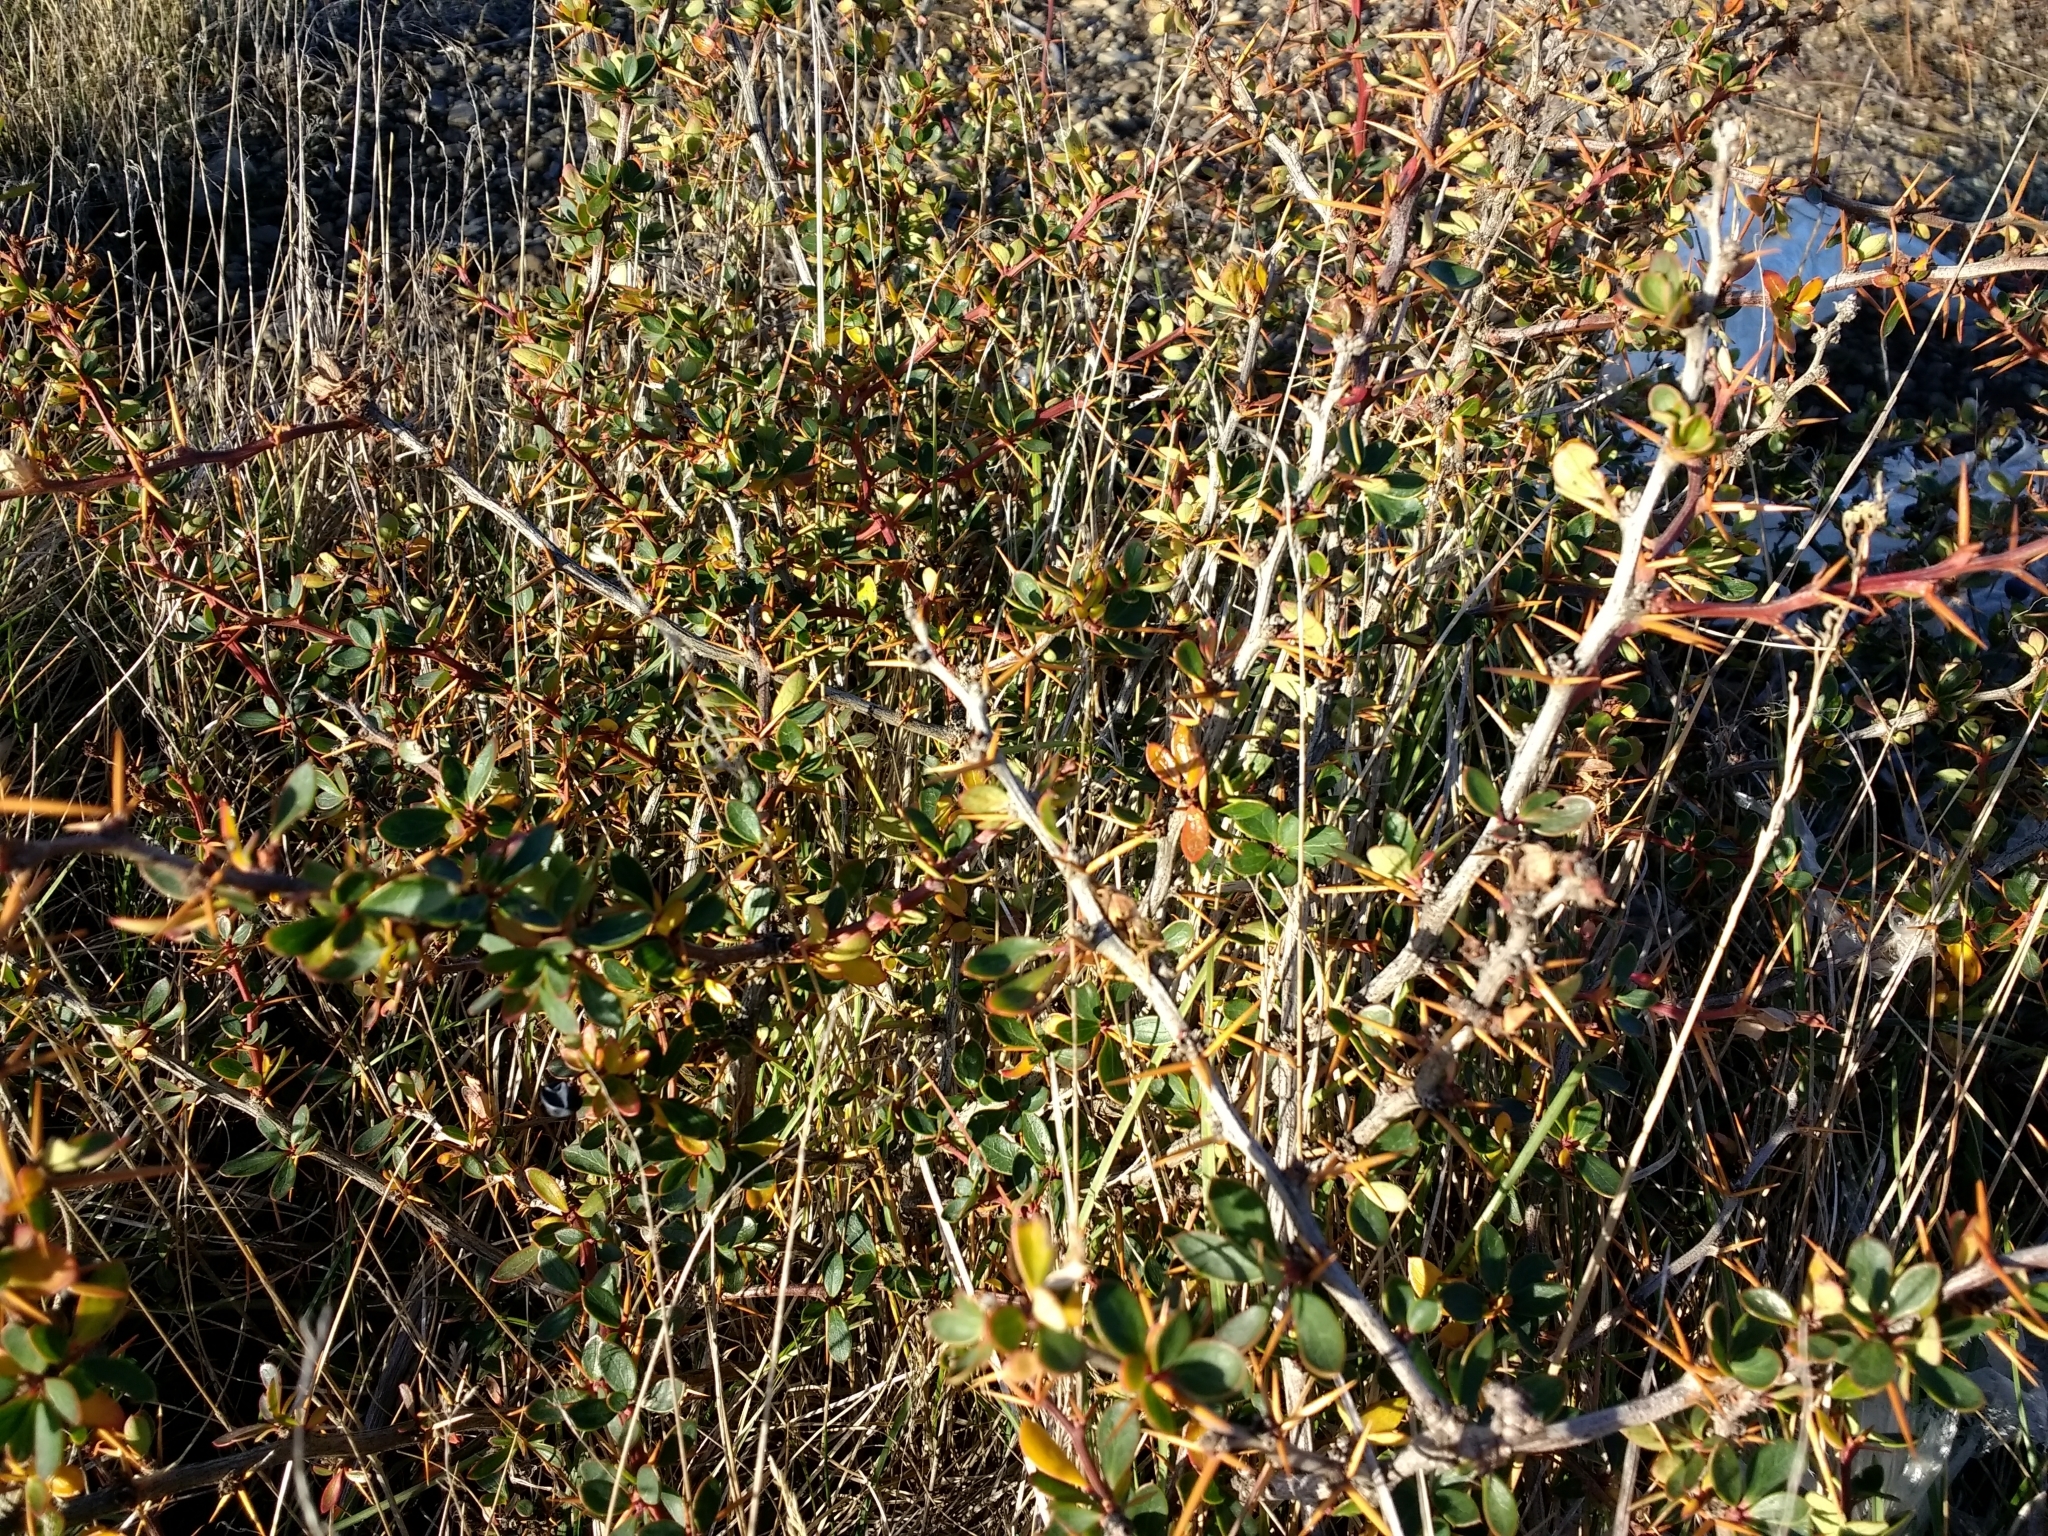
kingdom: Plantae
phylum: Tracheophyta
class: Magnoliopsida
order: Ranunculales
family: Berberidaceae
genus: Berberis
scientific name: Berberis microphylla
